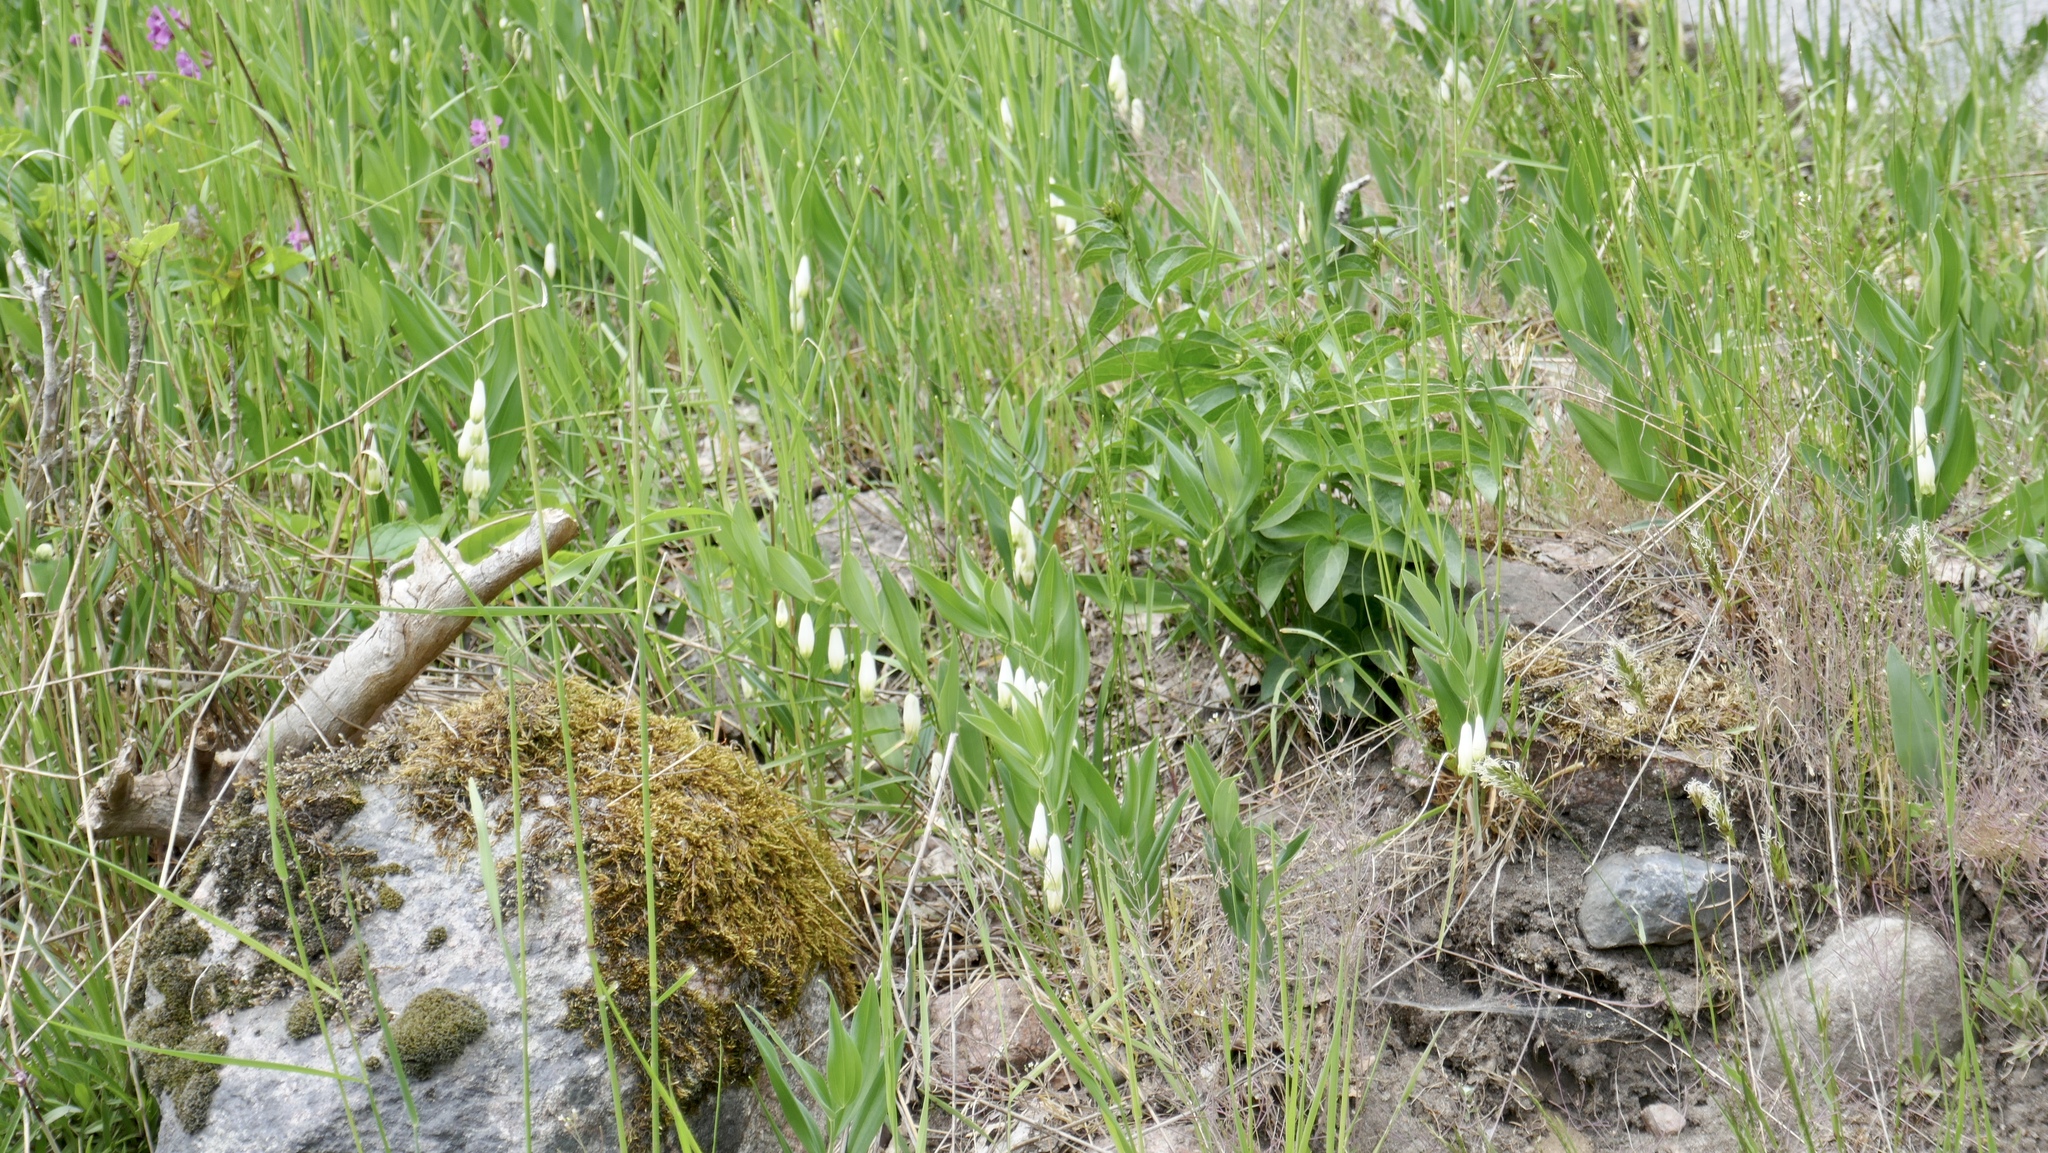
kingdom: Plantae
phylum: Tracheophyta
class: Liliopsida
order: Asparagales
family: Asparagaceae
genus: Polygonatum
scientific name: Polygonatum odoratum
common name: Angular solomon's-seal
